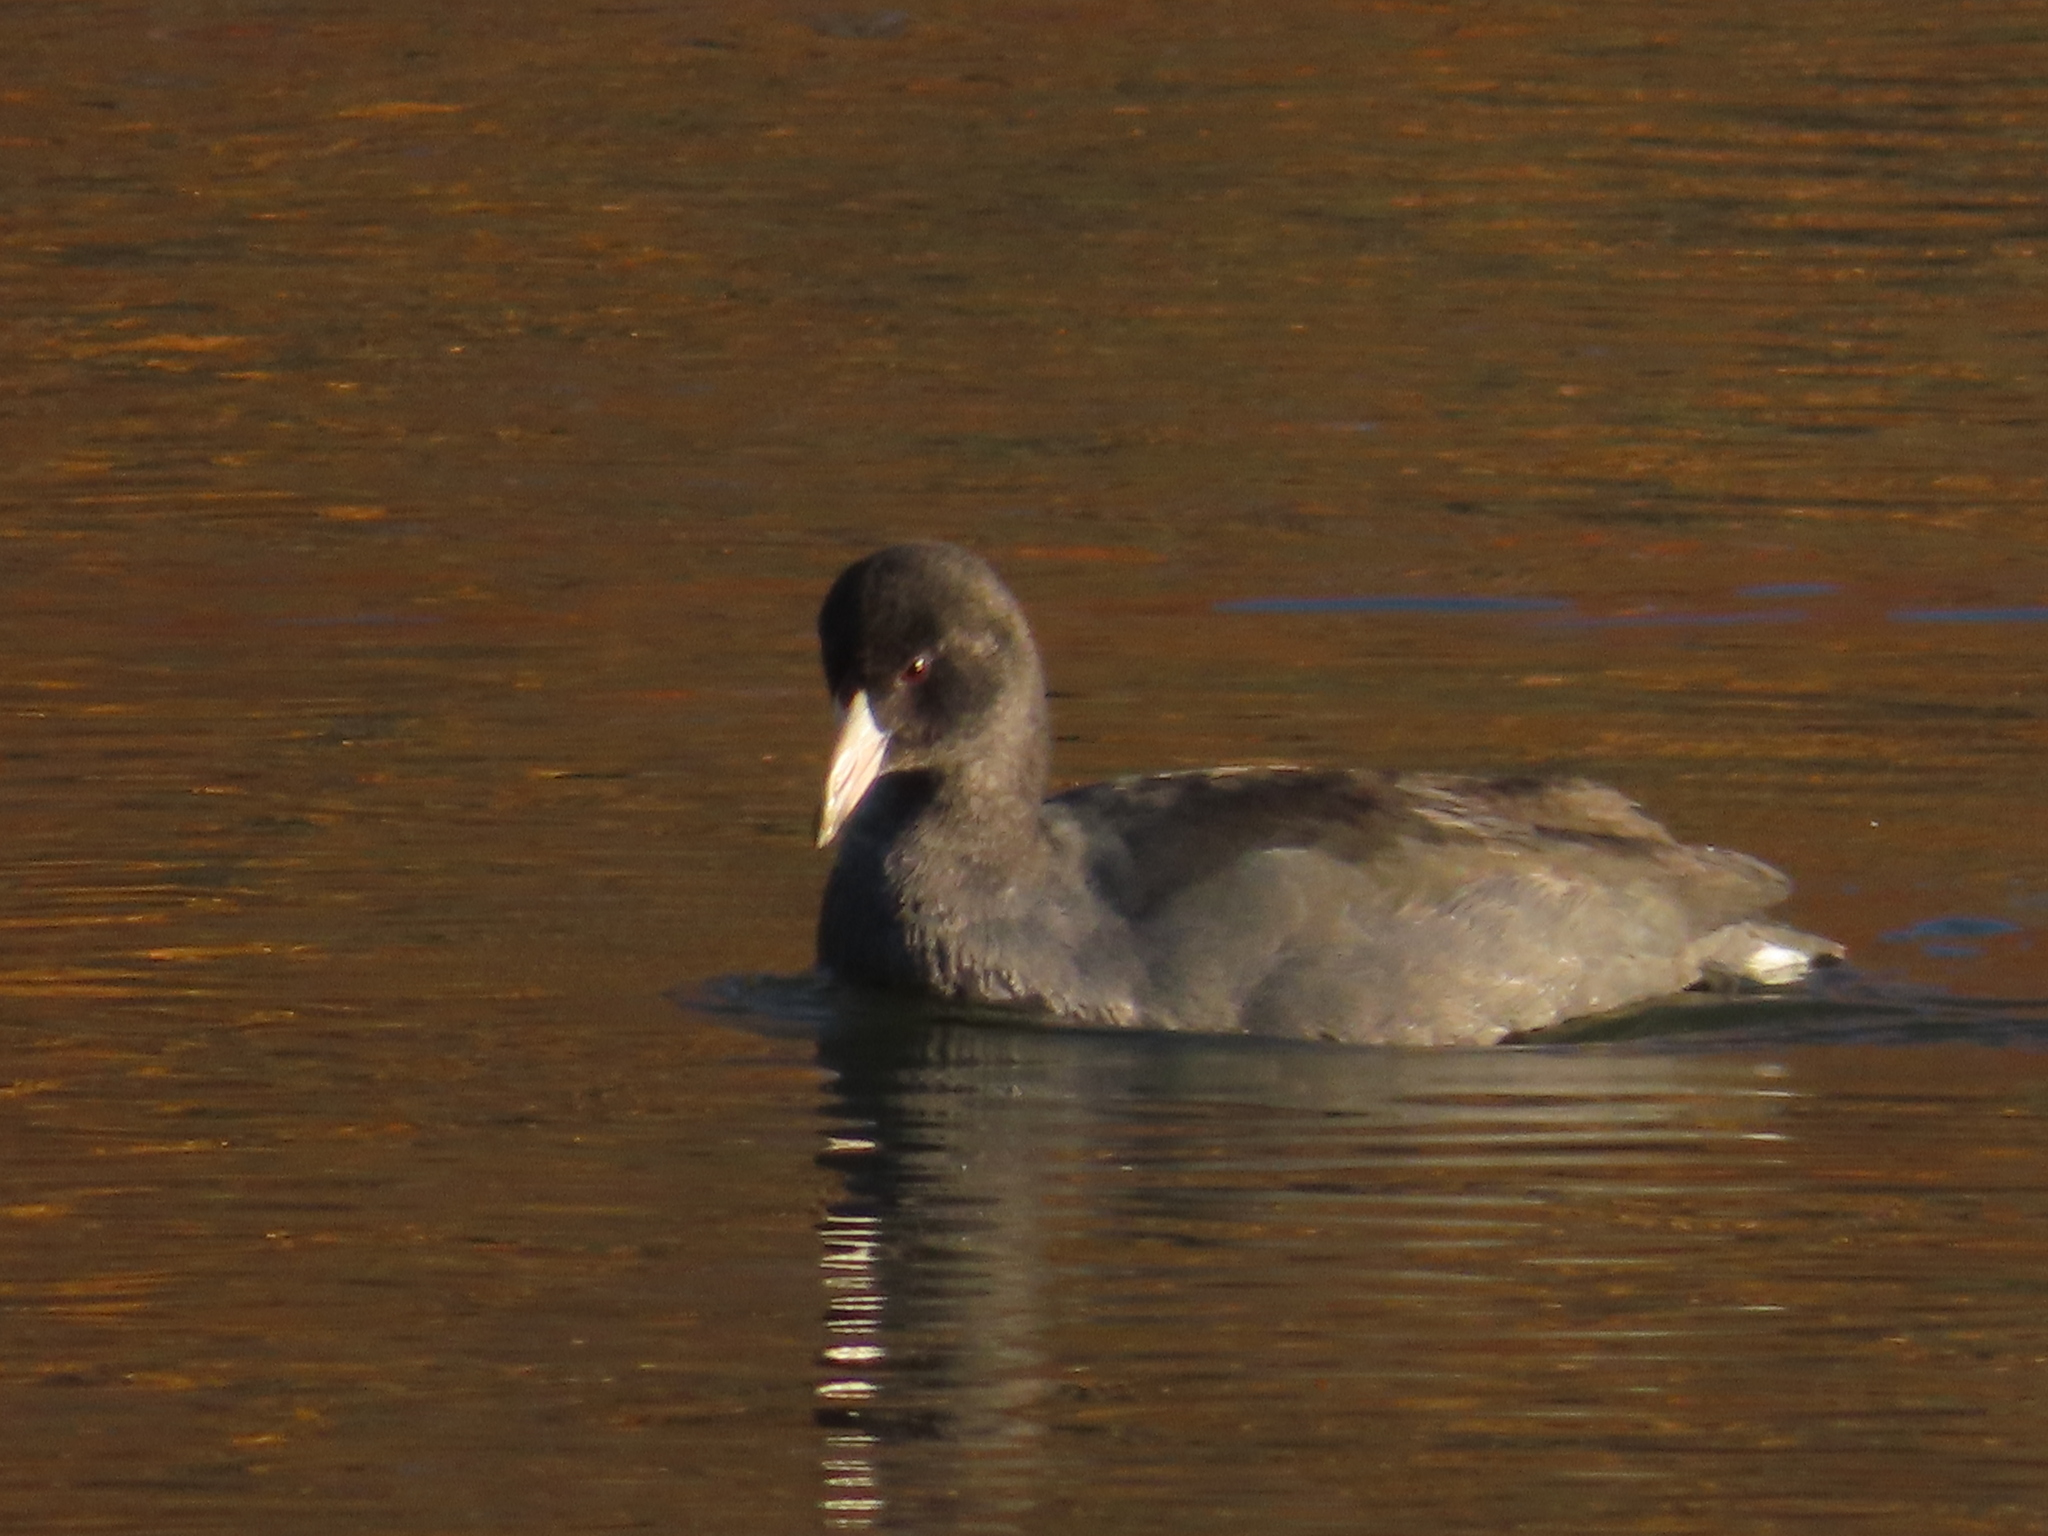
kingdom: Animalia
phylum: Chordata
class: Aves
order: Gruiformes
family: Rallidae
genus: Fulica
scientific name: Fulica americana
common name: American coot
